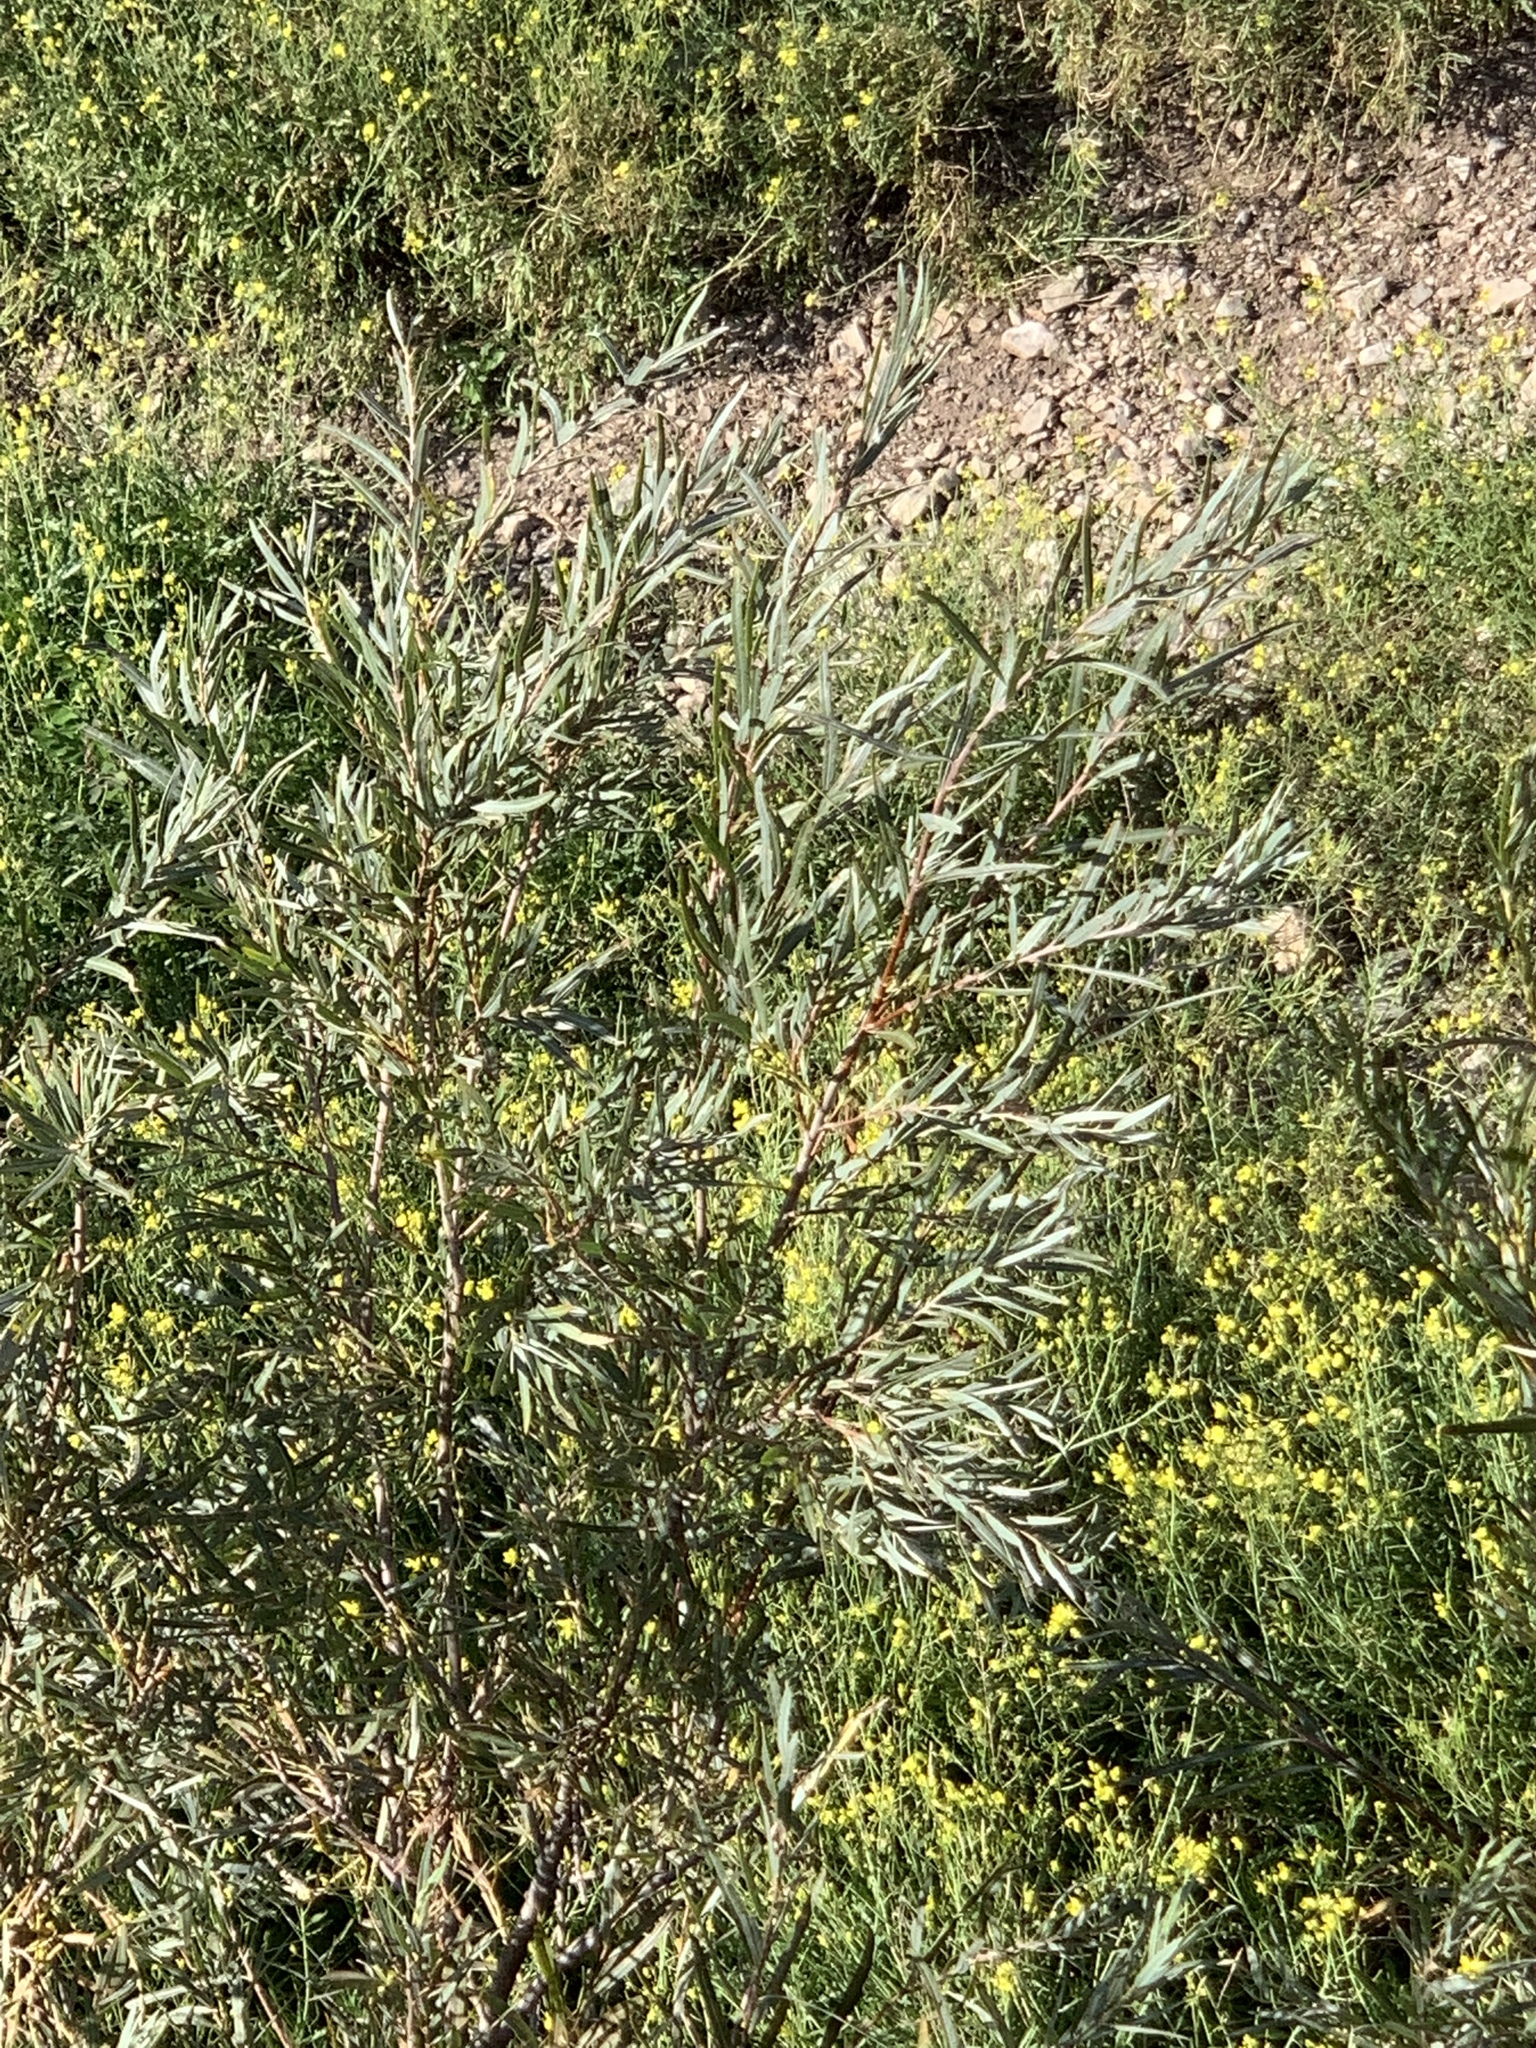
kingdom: Plantae
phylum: Tracheophyta
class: Magnoliopsida
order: Malpighiales
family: Salicaceae
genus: Salix
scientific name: Salix exigua
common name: Coyote willow
